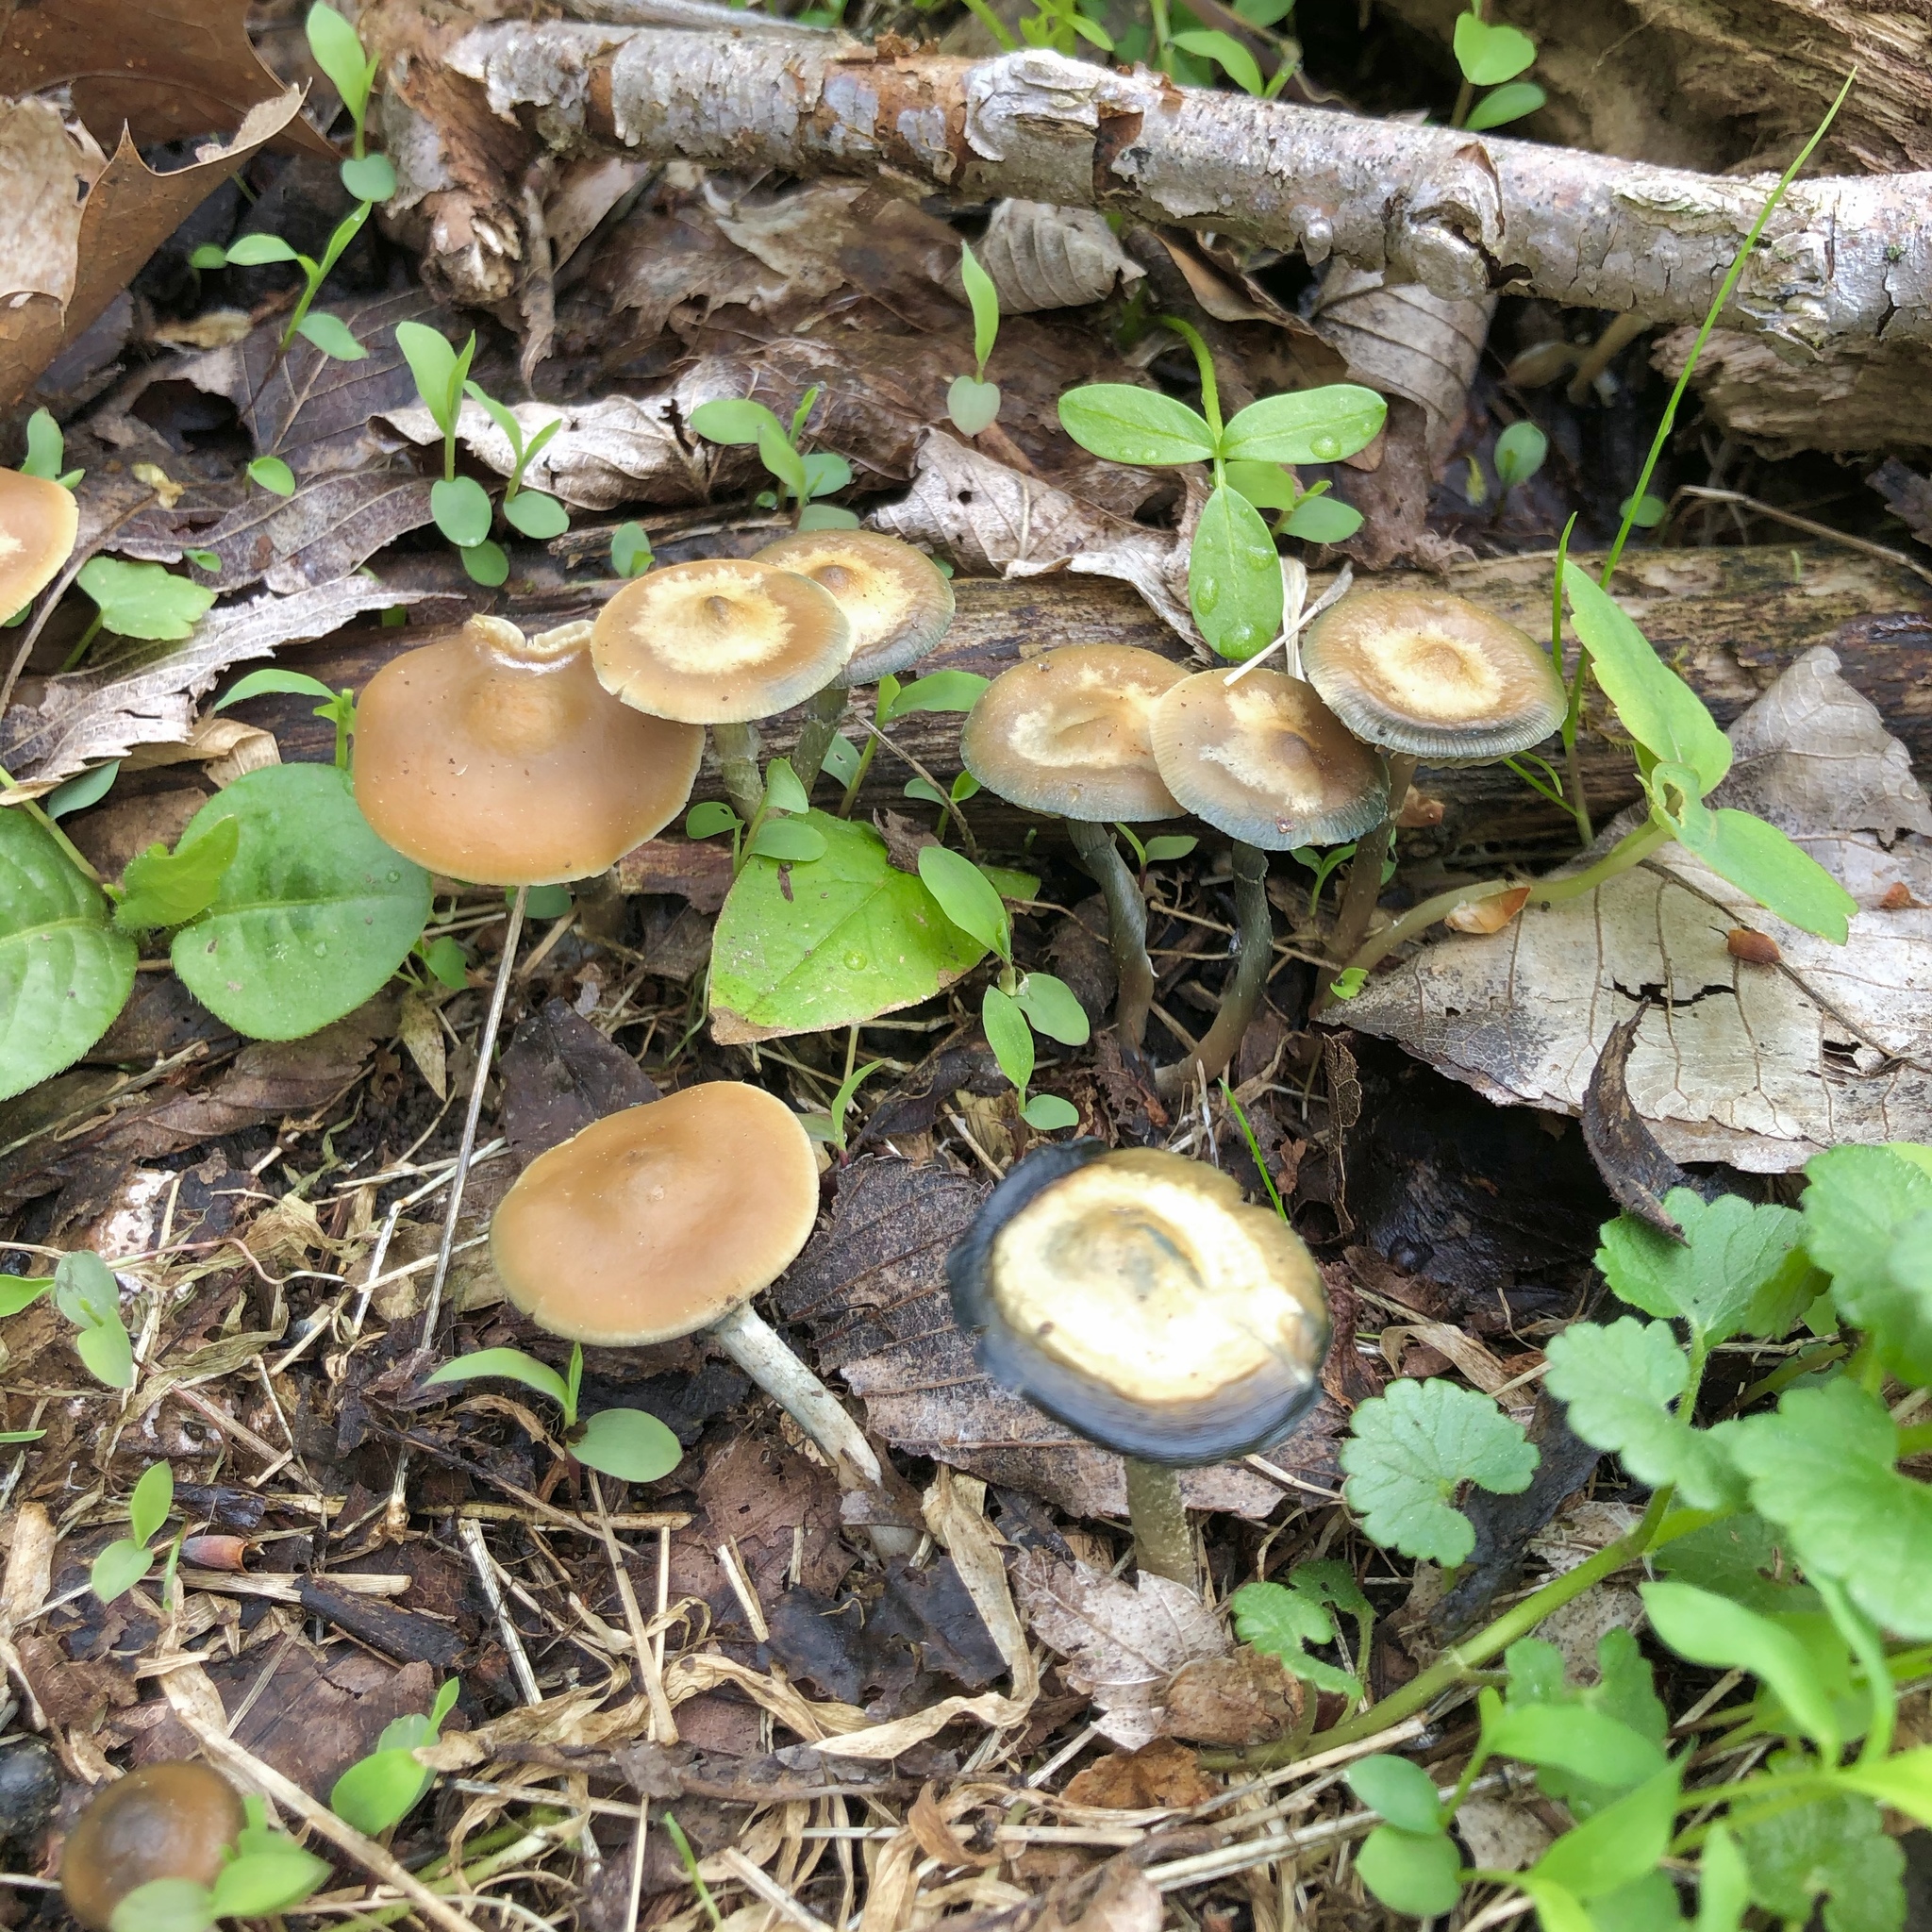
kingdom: Fungi
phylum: Basidiomycota
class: Agaricomycetes
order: Agaricales
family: Hymenogastraceae
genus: Psilocybe
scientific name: Psilocybe ovoideocystidiata
